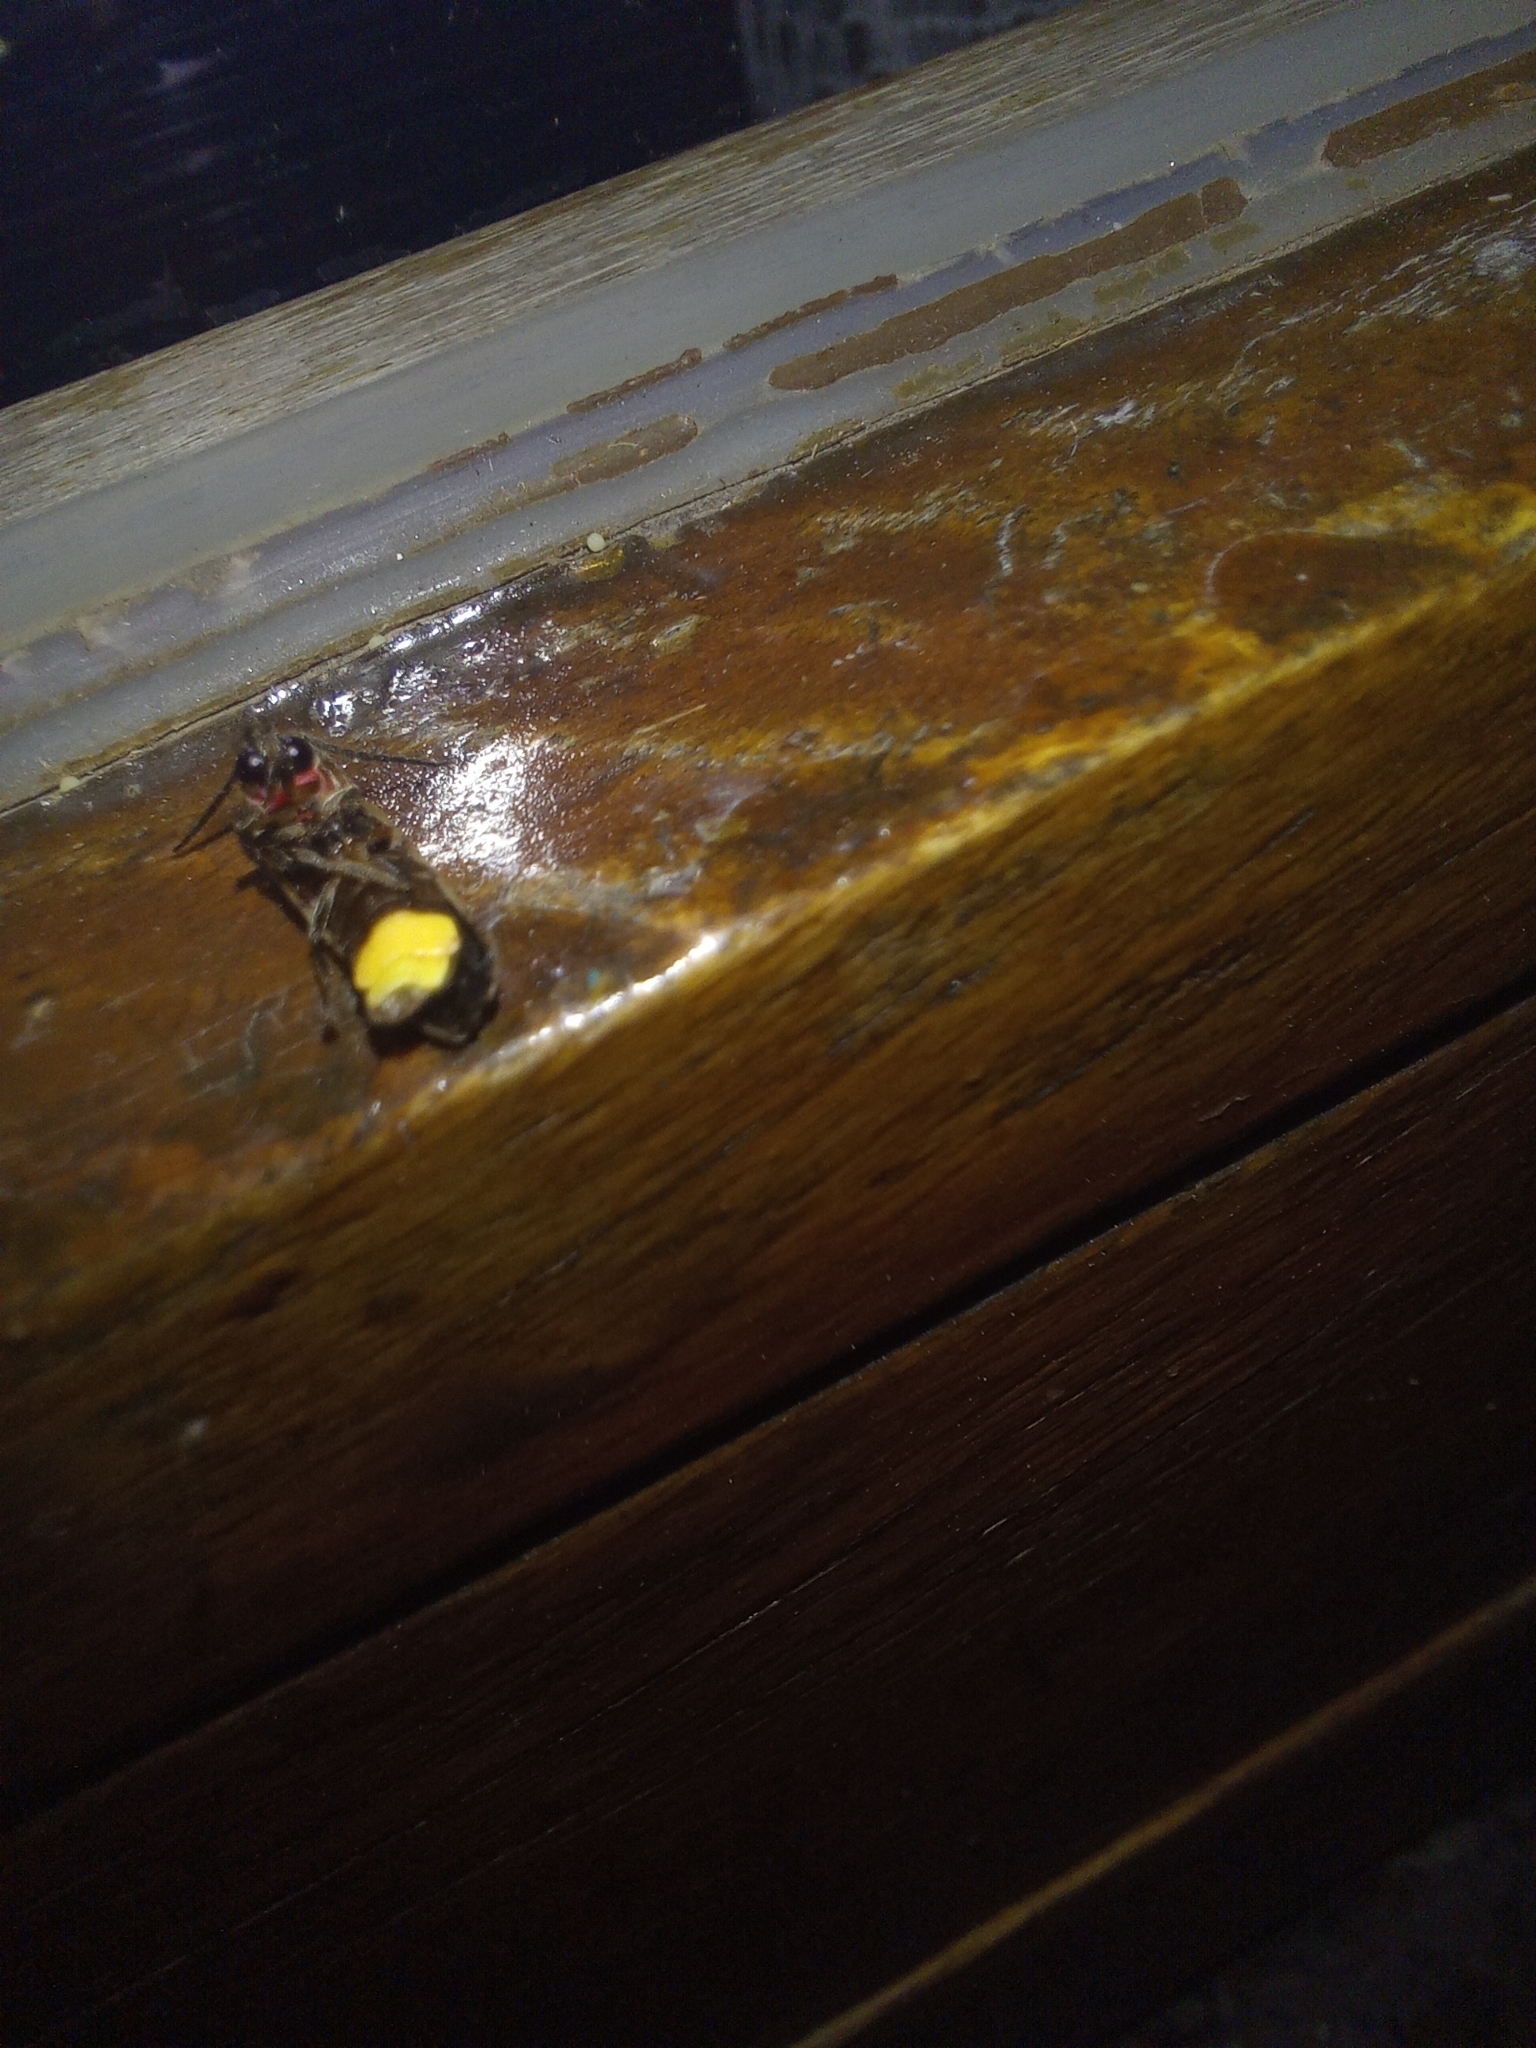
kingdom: Animalia
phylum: Arthropoda
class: Insecta
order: Coleoptera
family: Lampyridae
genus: Photinus
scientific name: Photinus signaticollis
